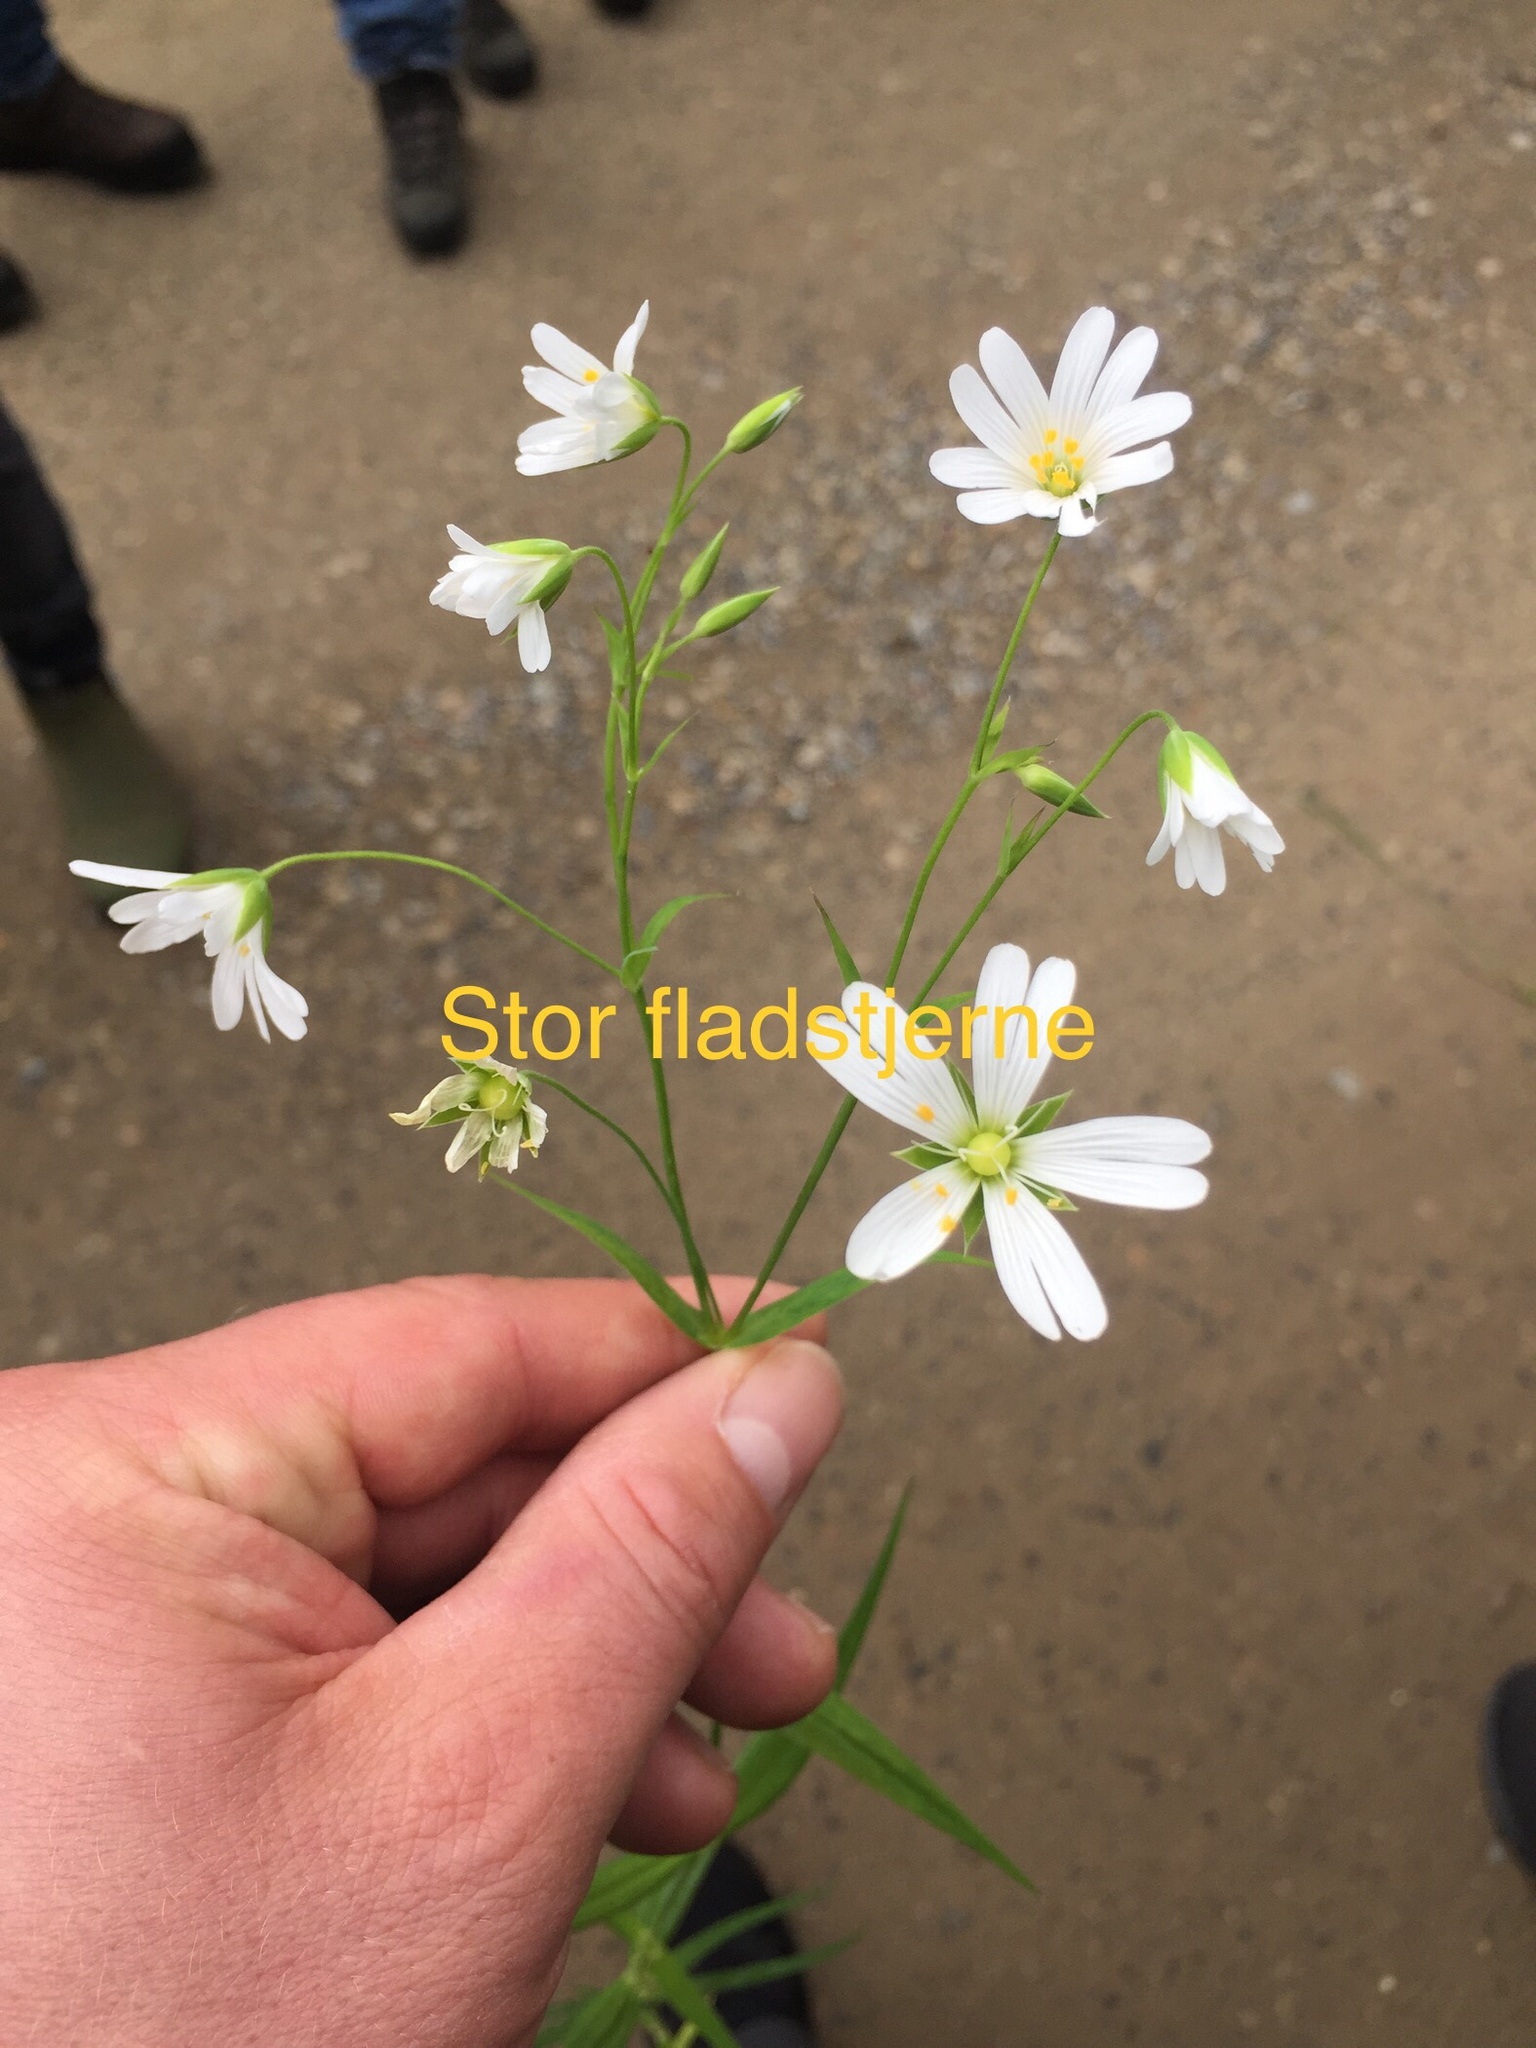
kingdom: Plantae
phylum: Tracheophyta
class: Magnoliopsida
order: Caryophyllales
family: Caryophyllaceae
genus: Rabelera
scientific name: Rabelera holostea
